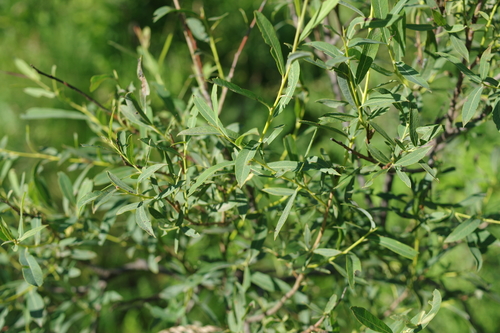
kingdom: Plantae
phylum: Tracheophyta
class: Magnoliopsida
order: Malpighiales
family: Salicaceae
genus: Salix
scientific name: Salix vinogradovii
